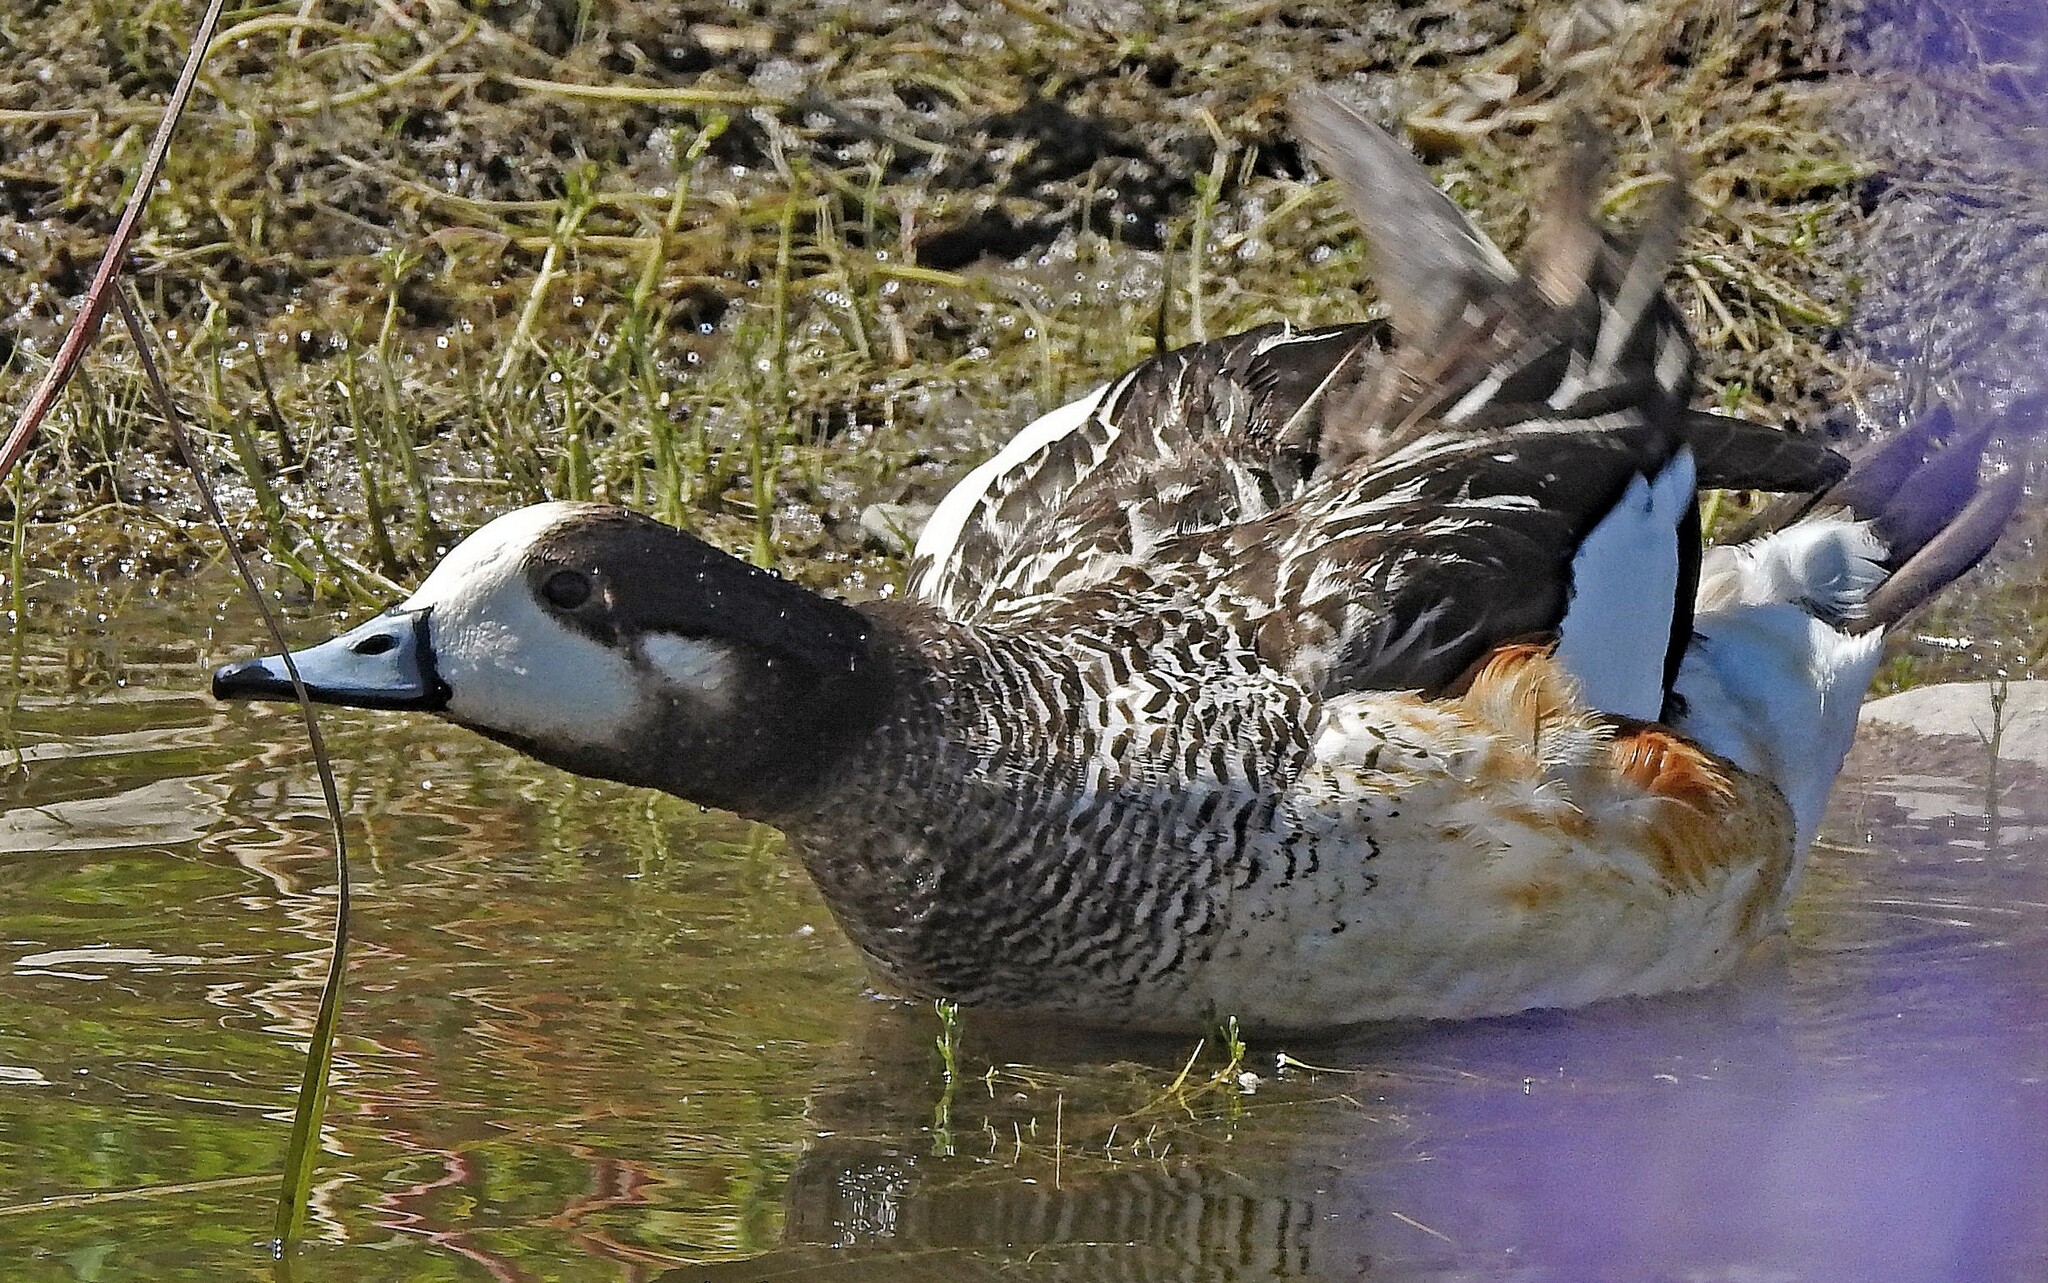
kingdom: Animalia
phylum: Chordata
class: Aves
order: Anseriformes
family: Anatidae
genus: Mareca
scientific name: Mareca sibilatrix
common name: Chiloe wigeon
